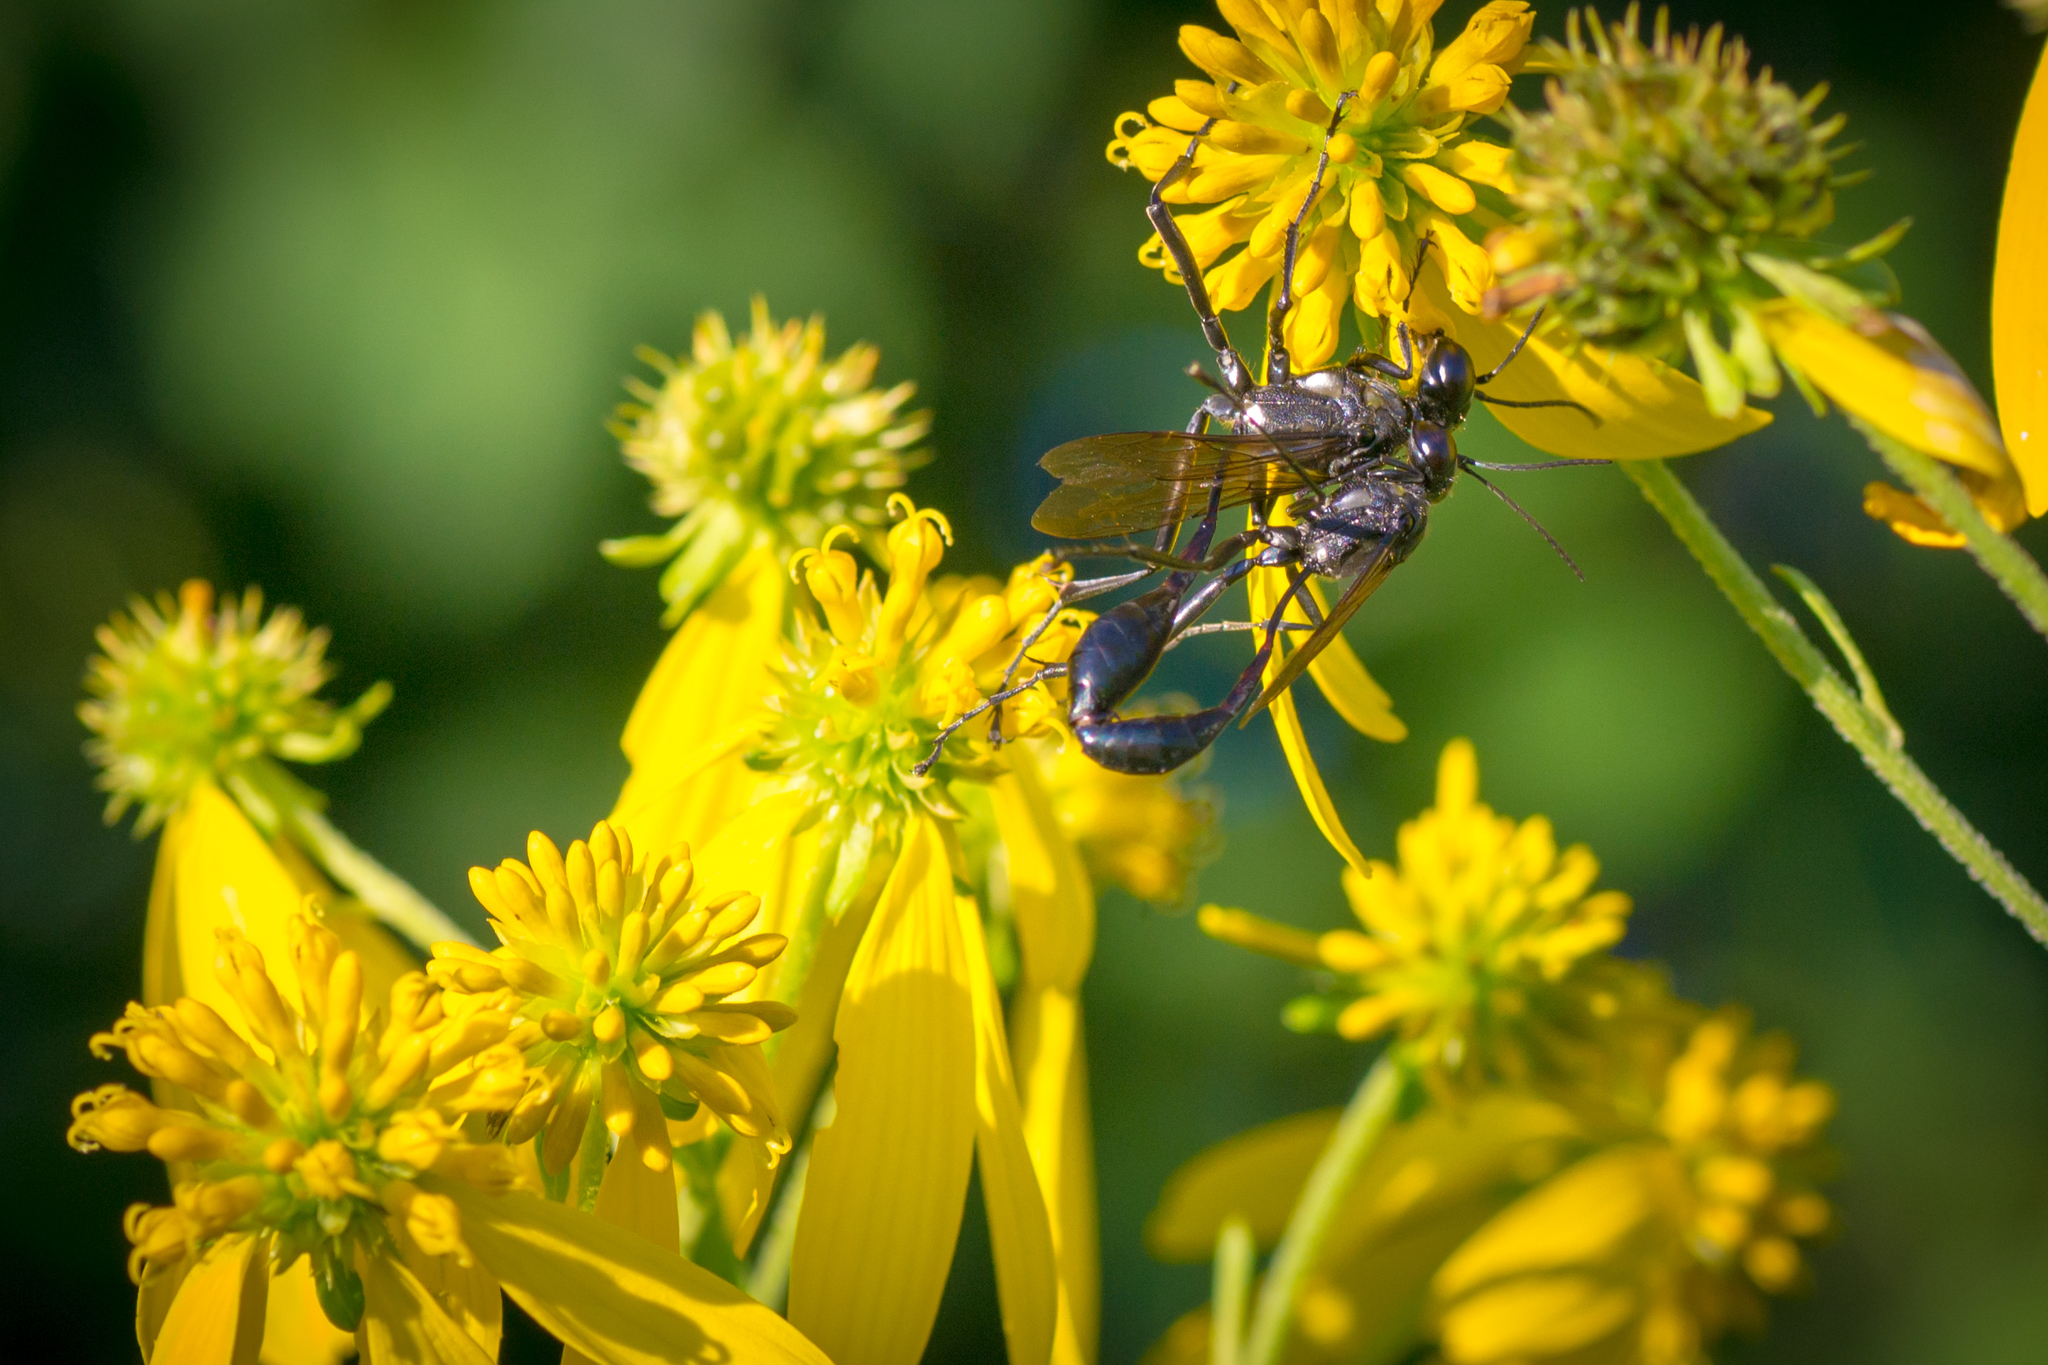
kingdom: Animalia
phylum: Arthropoda
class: Insecta
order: Hymenoptera
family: Sphecidae
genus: Eremnophila
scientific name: Eremnophila aureonotata
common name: Gold-marked thread-waisted wasp
